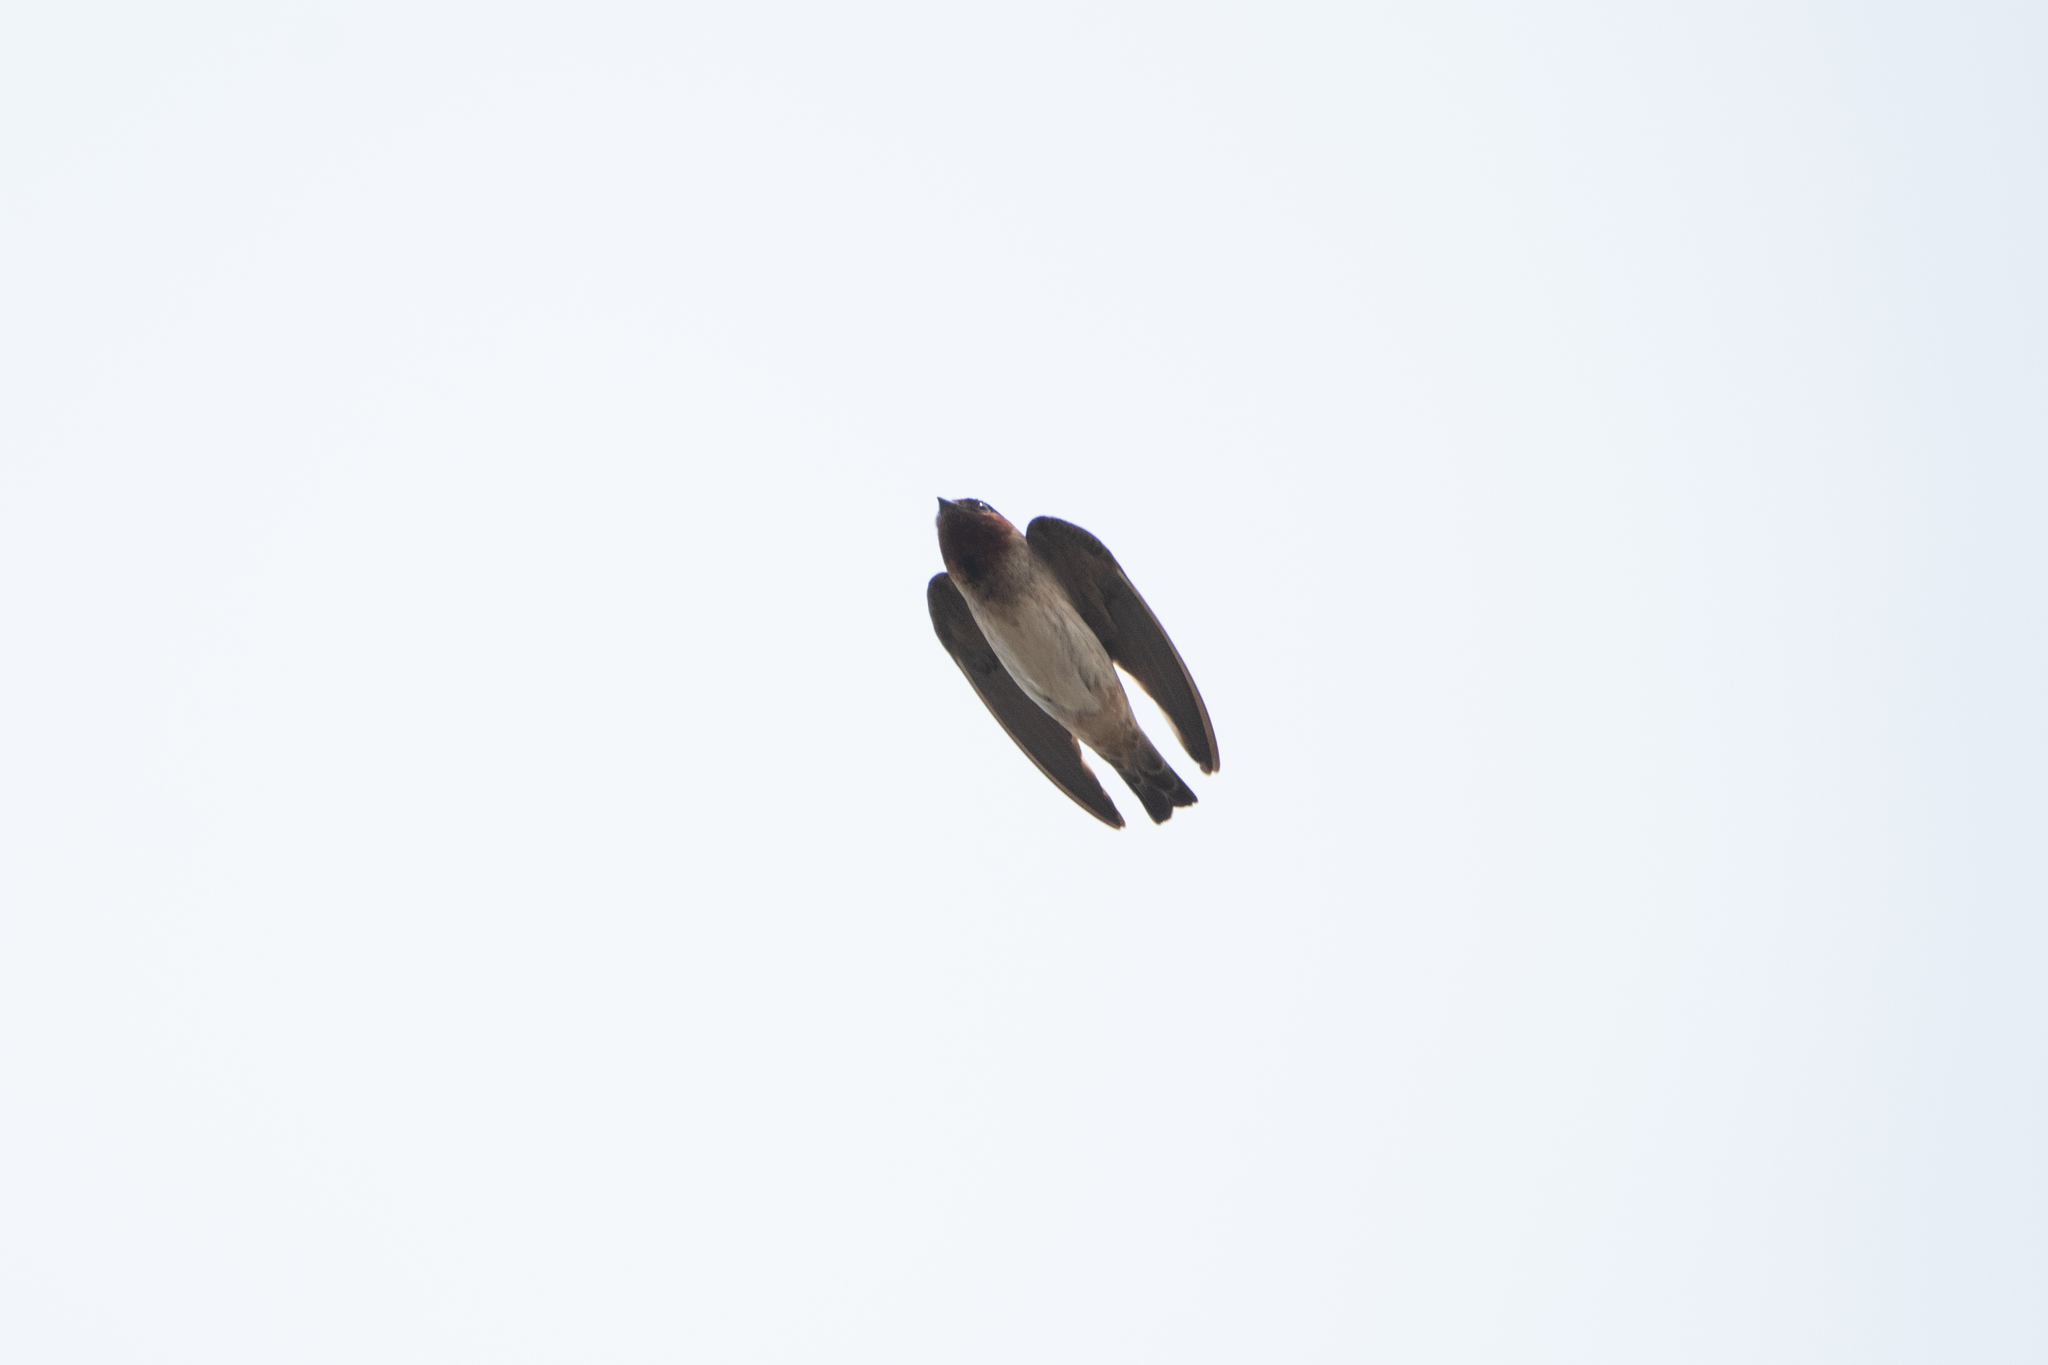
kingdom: Animalia
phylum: Chordata
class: Aves
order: Passeriformes
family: Hirundinidae
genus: Petrochelidon
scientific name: Petrochelidon pyrrhonota
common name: American cliff swallow
